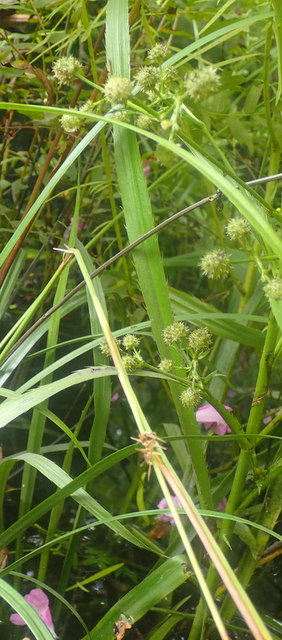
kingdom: Plantae
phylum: Tracheophyta
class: Magnoliopsida
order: Apiales
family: Apiaceae
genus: Eryngium
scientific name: Eryngium yuccifolium
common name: Button eryngo
